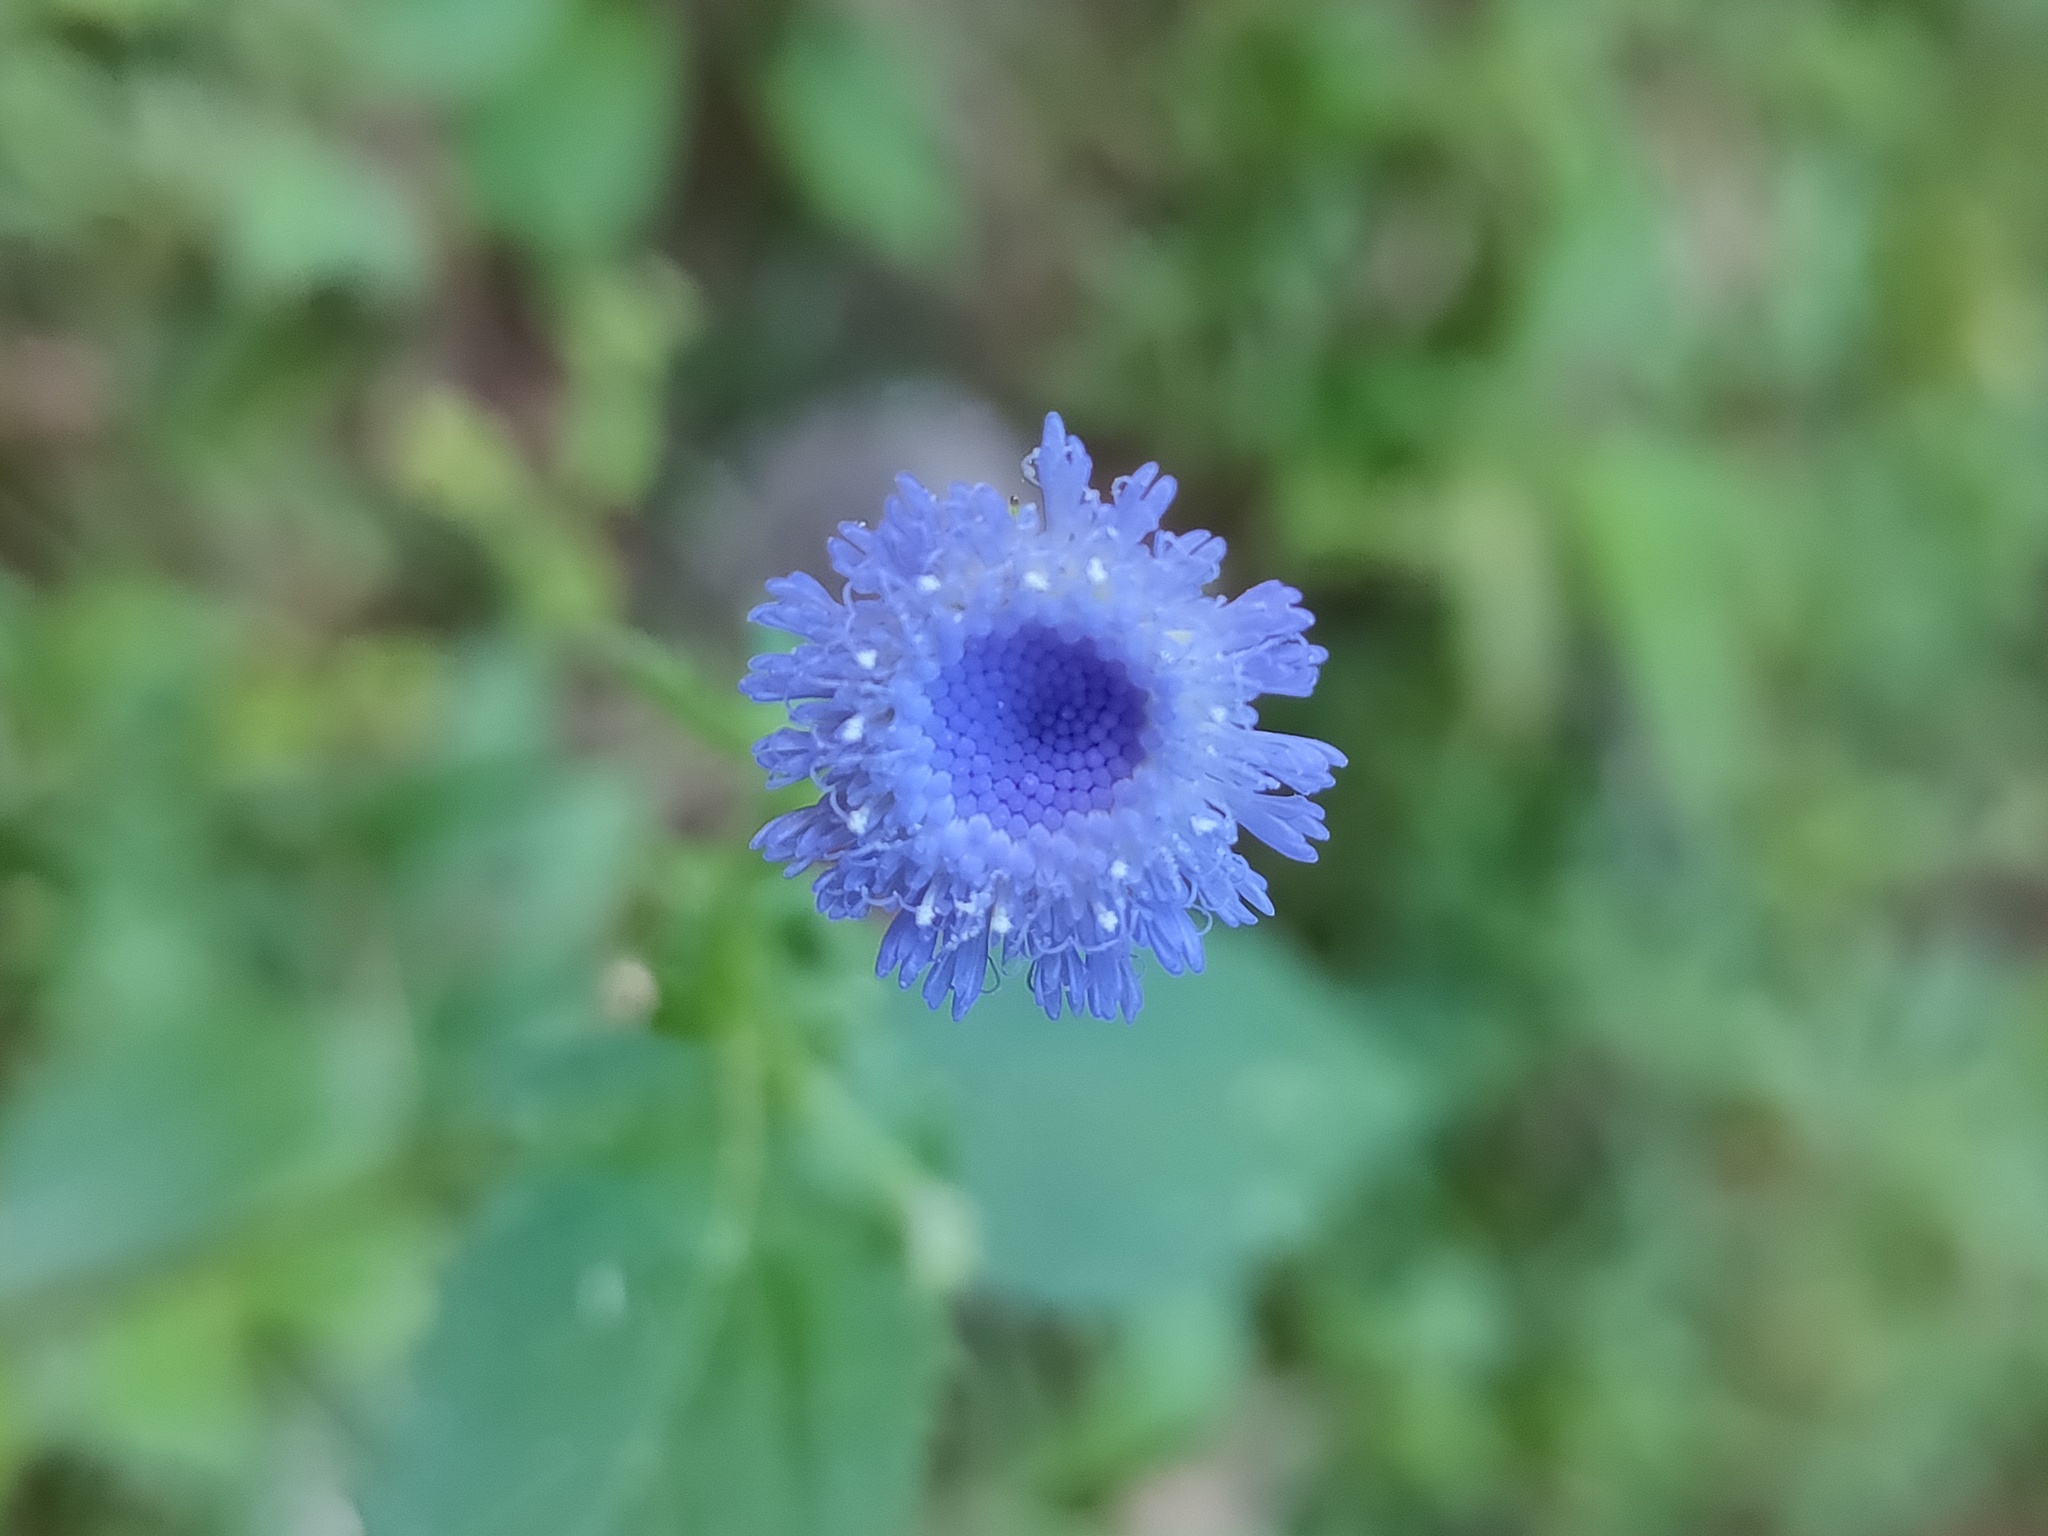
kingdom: Plantae
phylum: Tracheophyta
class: Magnoliopsida
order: Asterales
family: Asteraceae
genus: Crassocephalum
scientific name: Crassocephalum rubens
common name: Yoruban bologi
